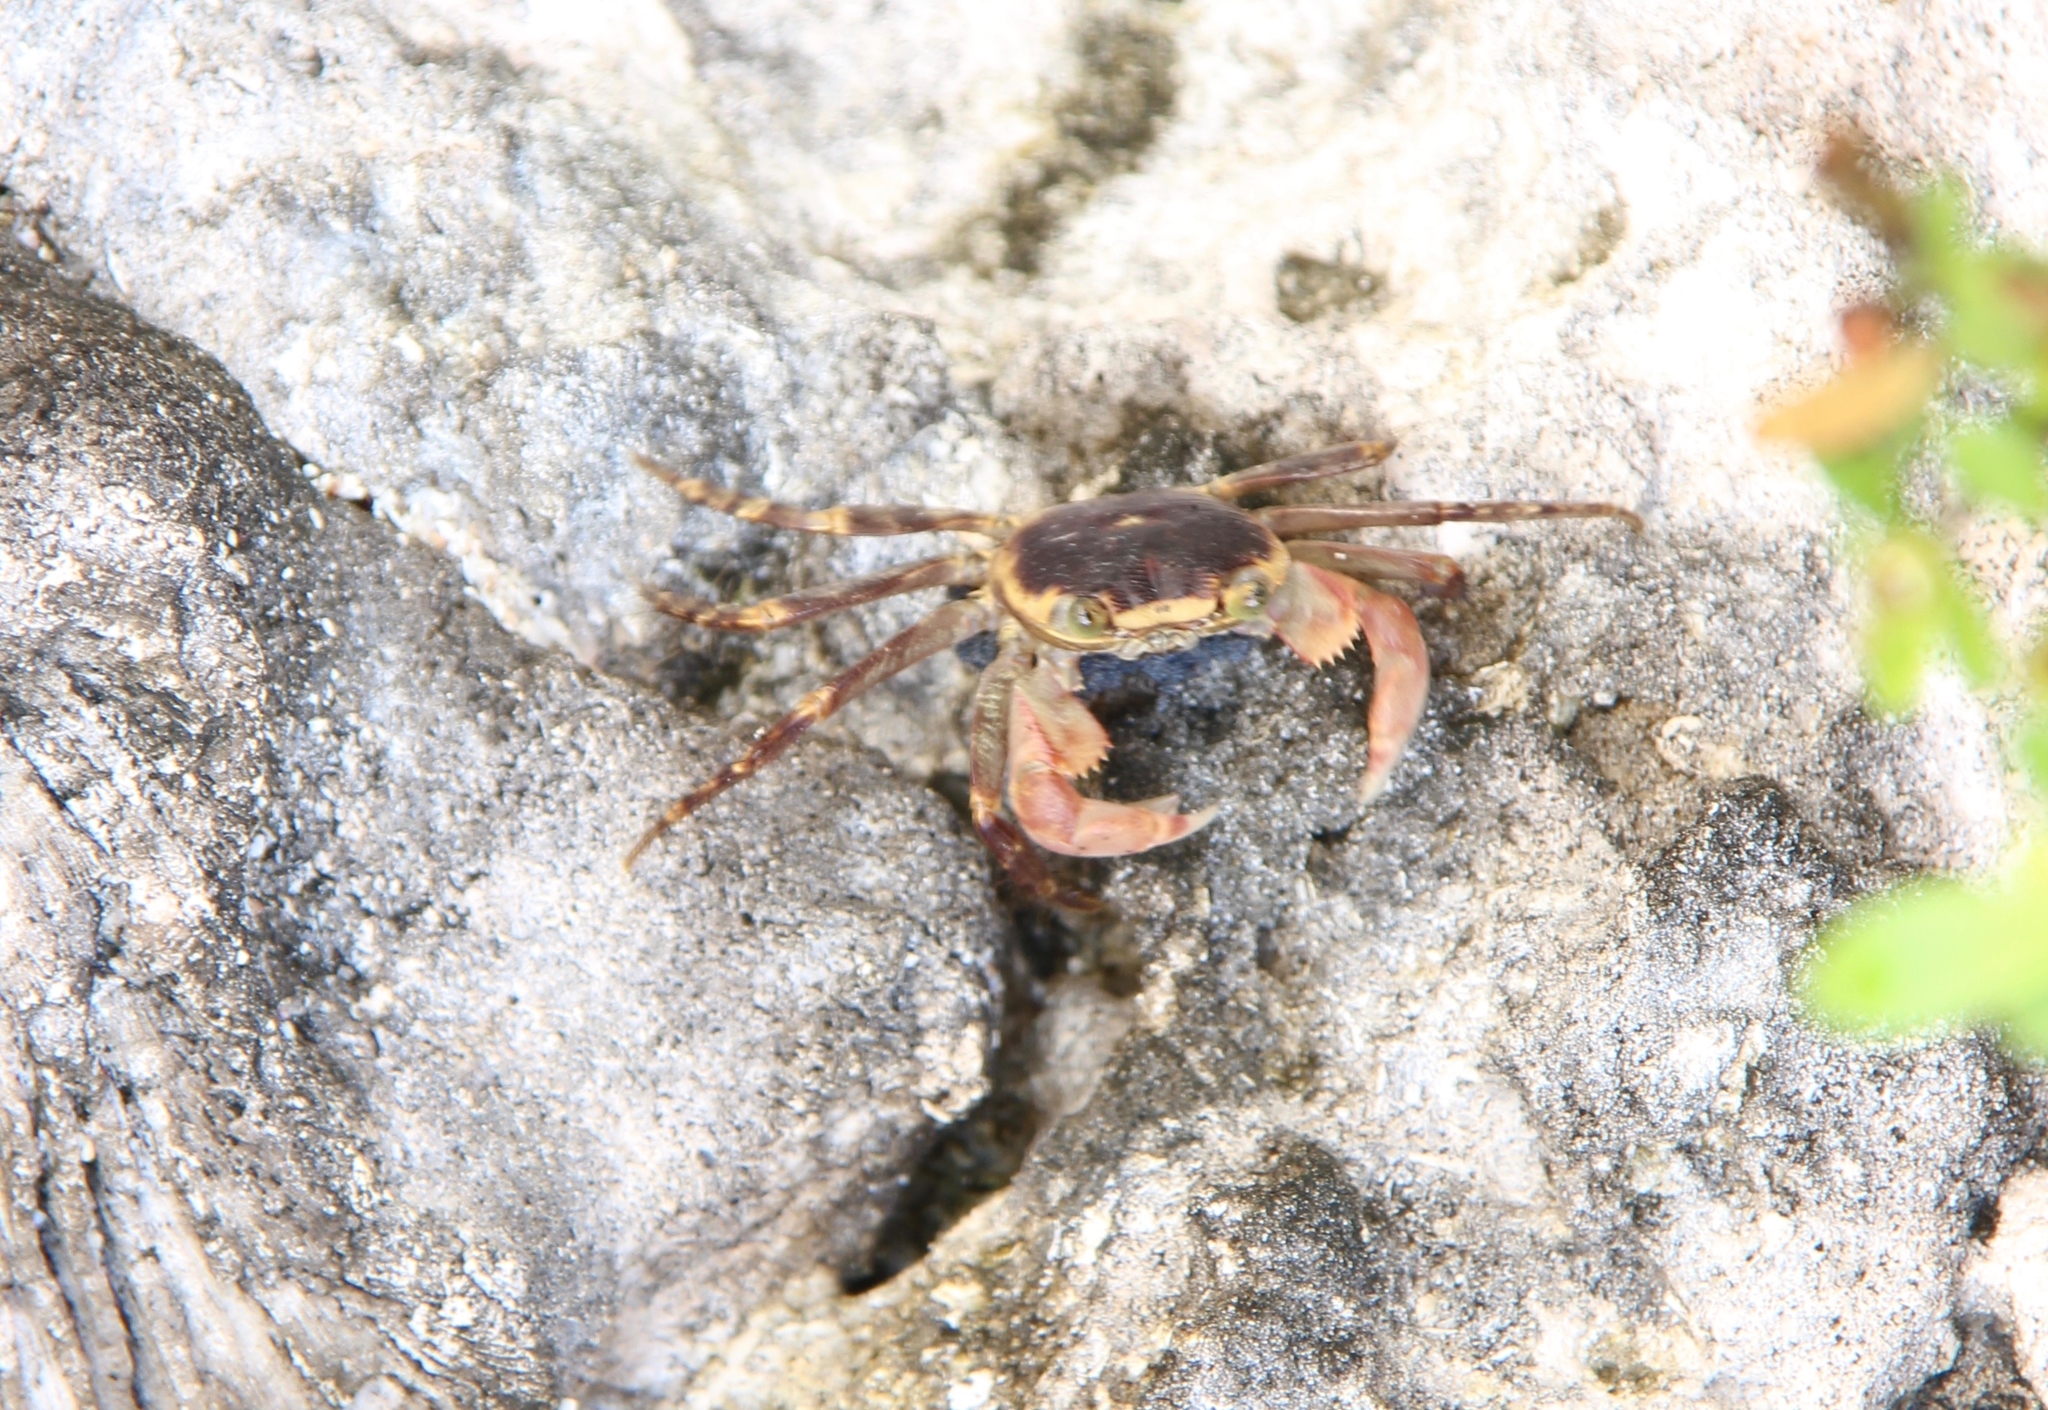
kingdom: Animalia
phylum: Arthropoda
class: Malacostraca
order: Decapoda
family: Grapsidae
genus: Geograpsus
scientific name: Geograpsus grayi
